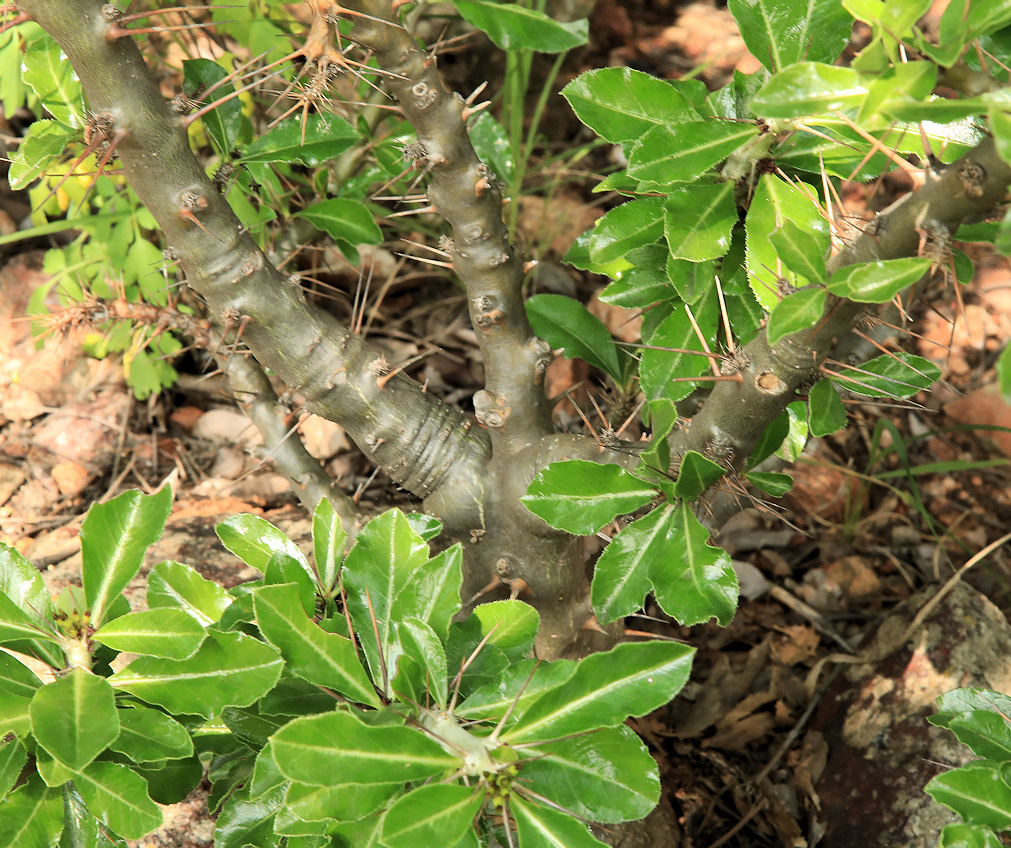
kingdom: Plantae
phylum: Tracheophyta
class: Magnoliopsida
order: Gentianales
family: Apocynaceae
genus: Pachypodium
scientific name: Pachypodium saundersii
